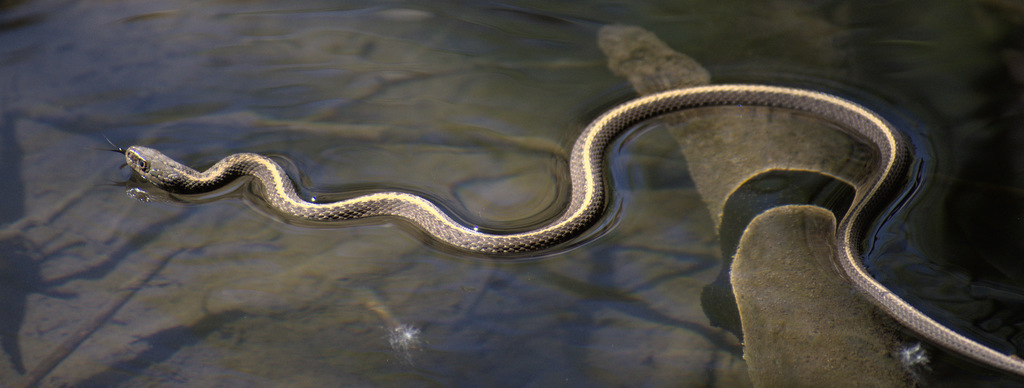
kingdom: Animalia
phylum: Chordata
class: Squamata
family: Colubridae
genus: Thamnophis
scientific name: Thamnophis elegans
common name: Western terrestrial garter snake
